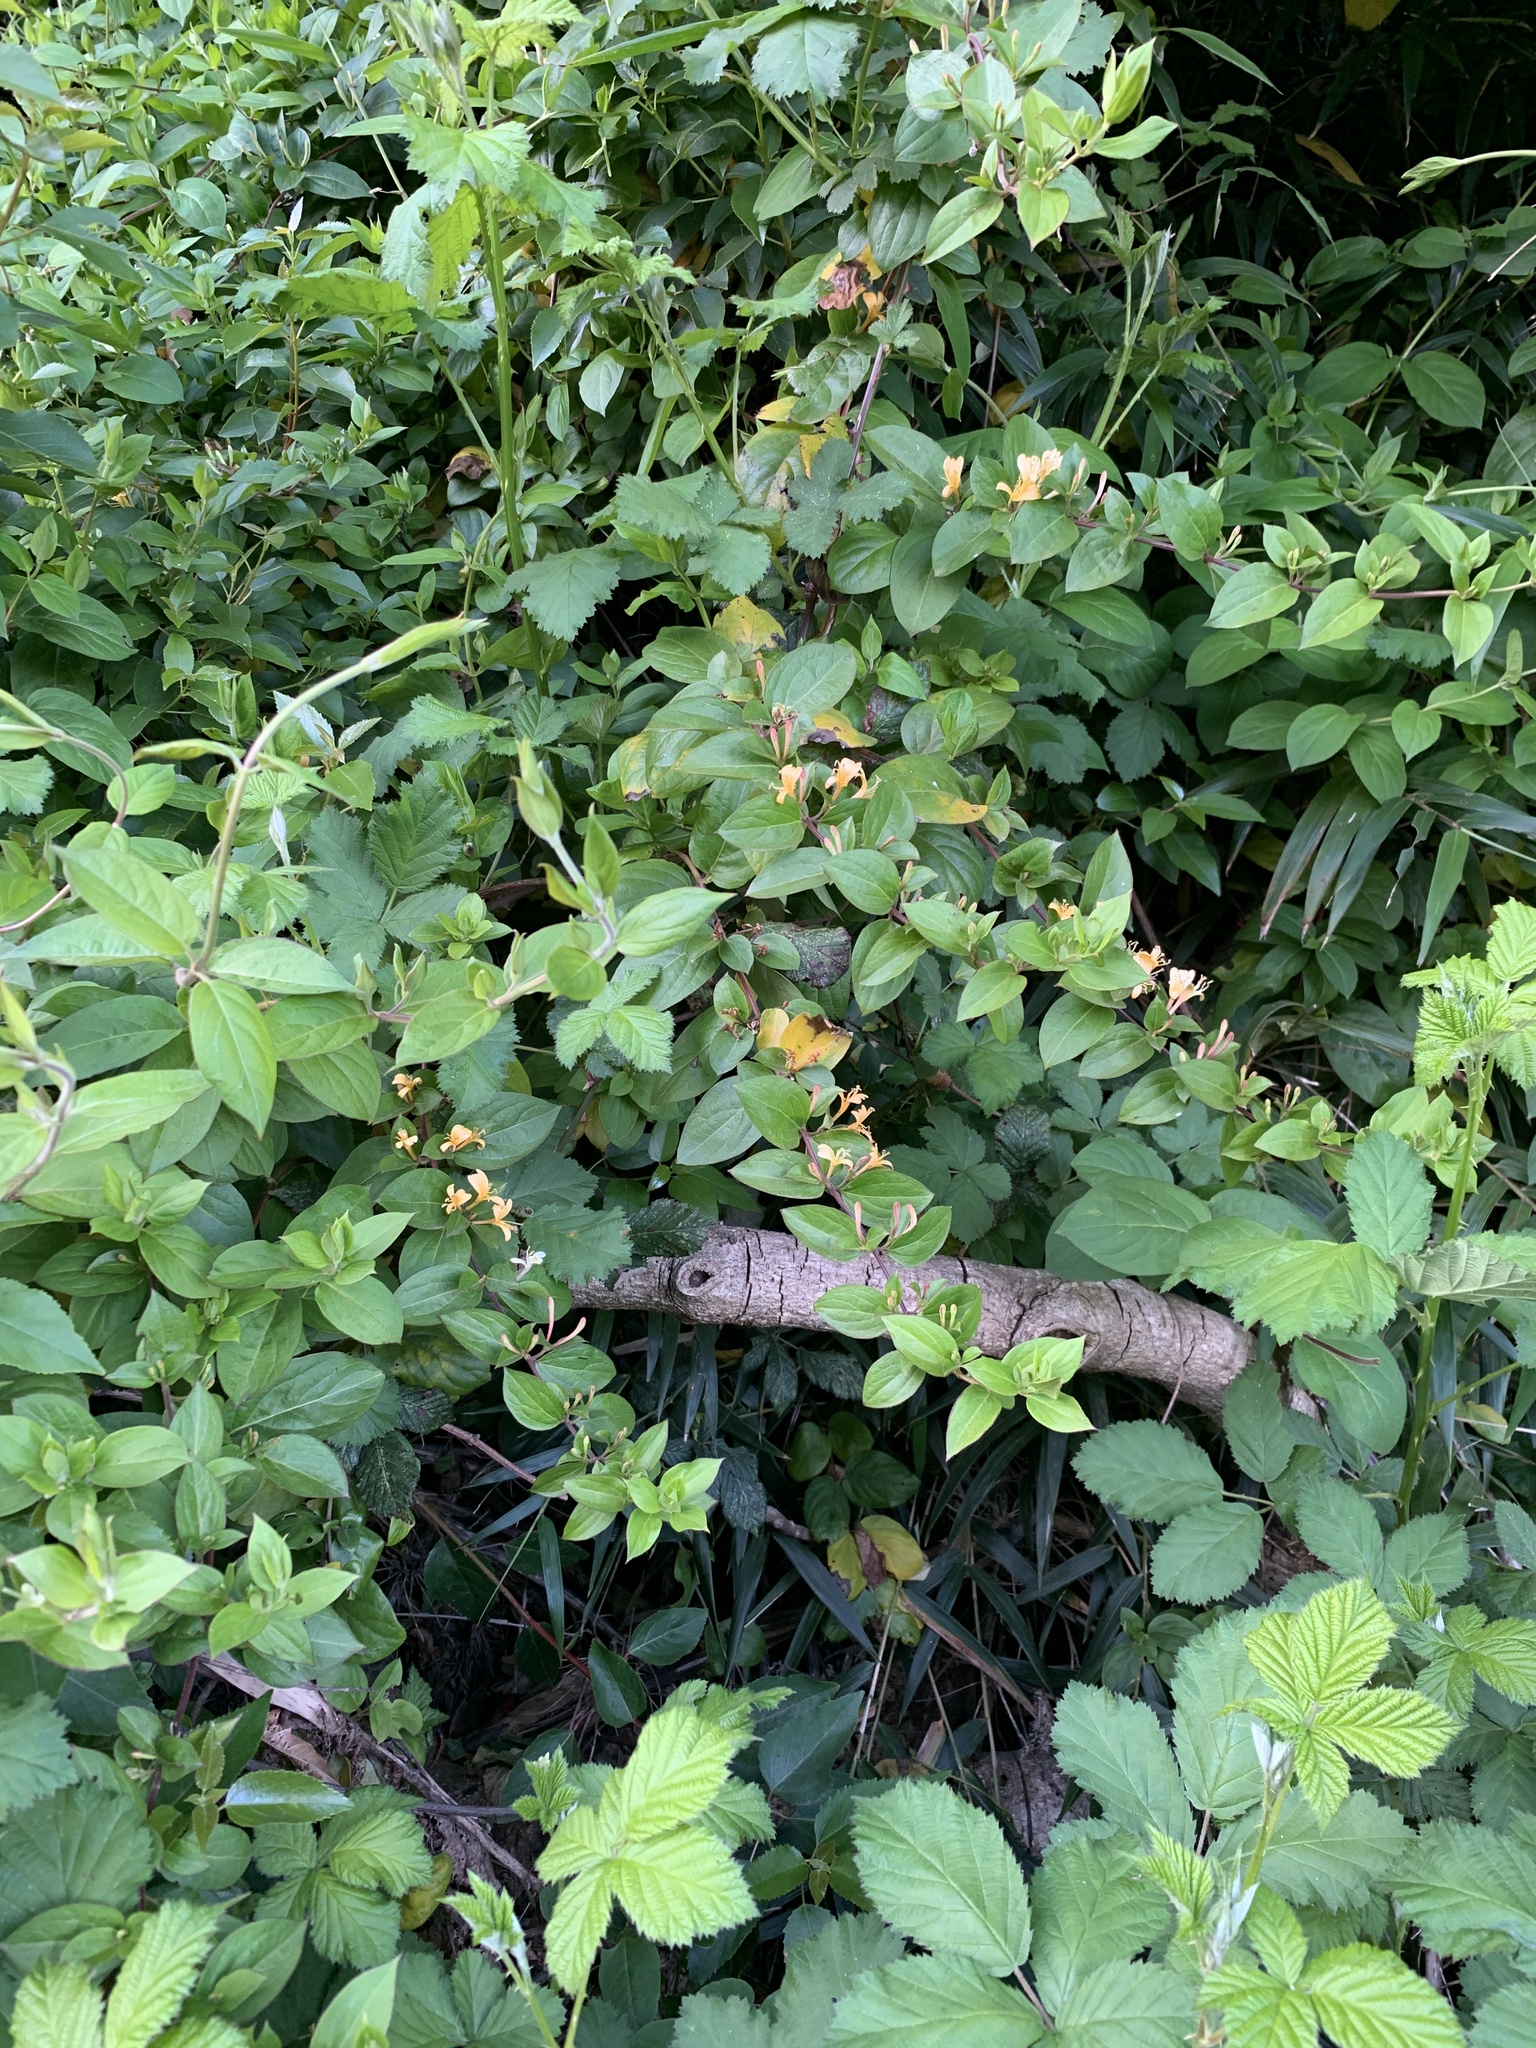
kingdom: Plantae
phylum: Tracheophyta
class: Magnoliopsida
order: Dipsacales
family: Caprifoliaceae
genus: Lonicera
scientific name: Lonicera japonica
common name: Japanese honeysuckle
